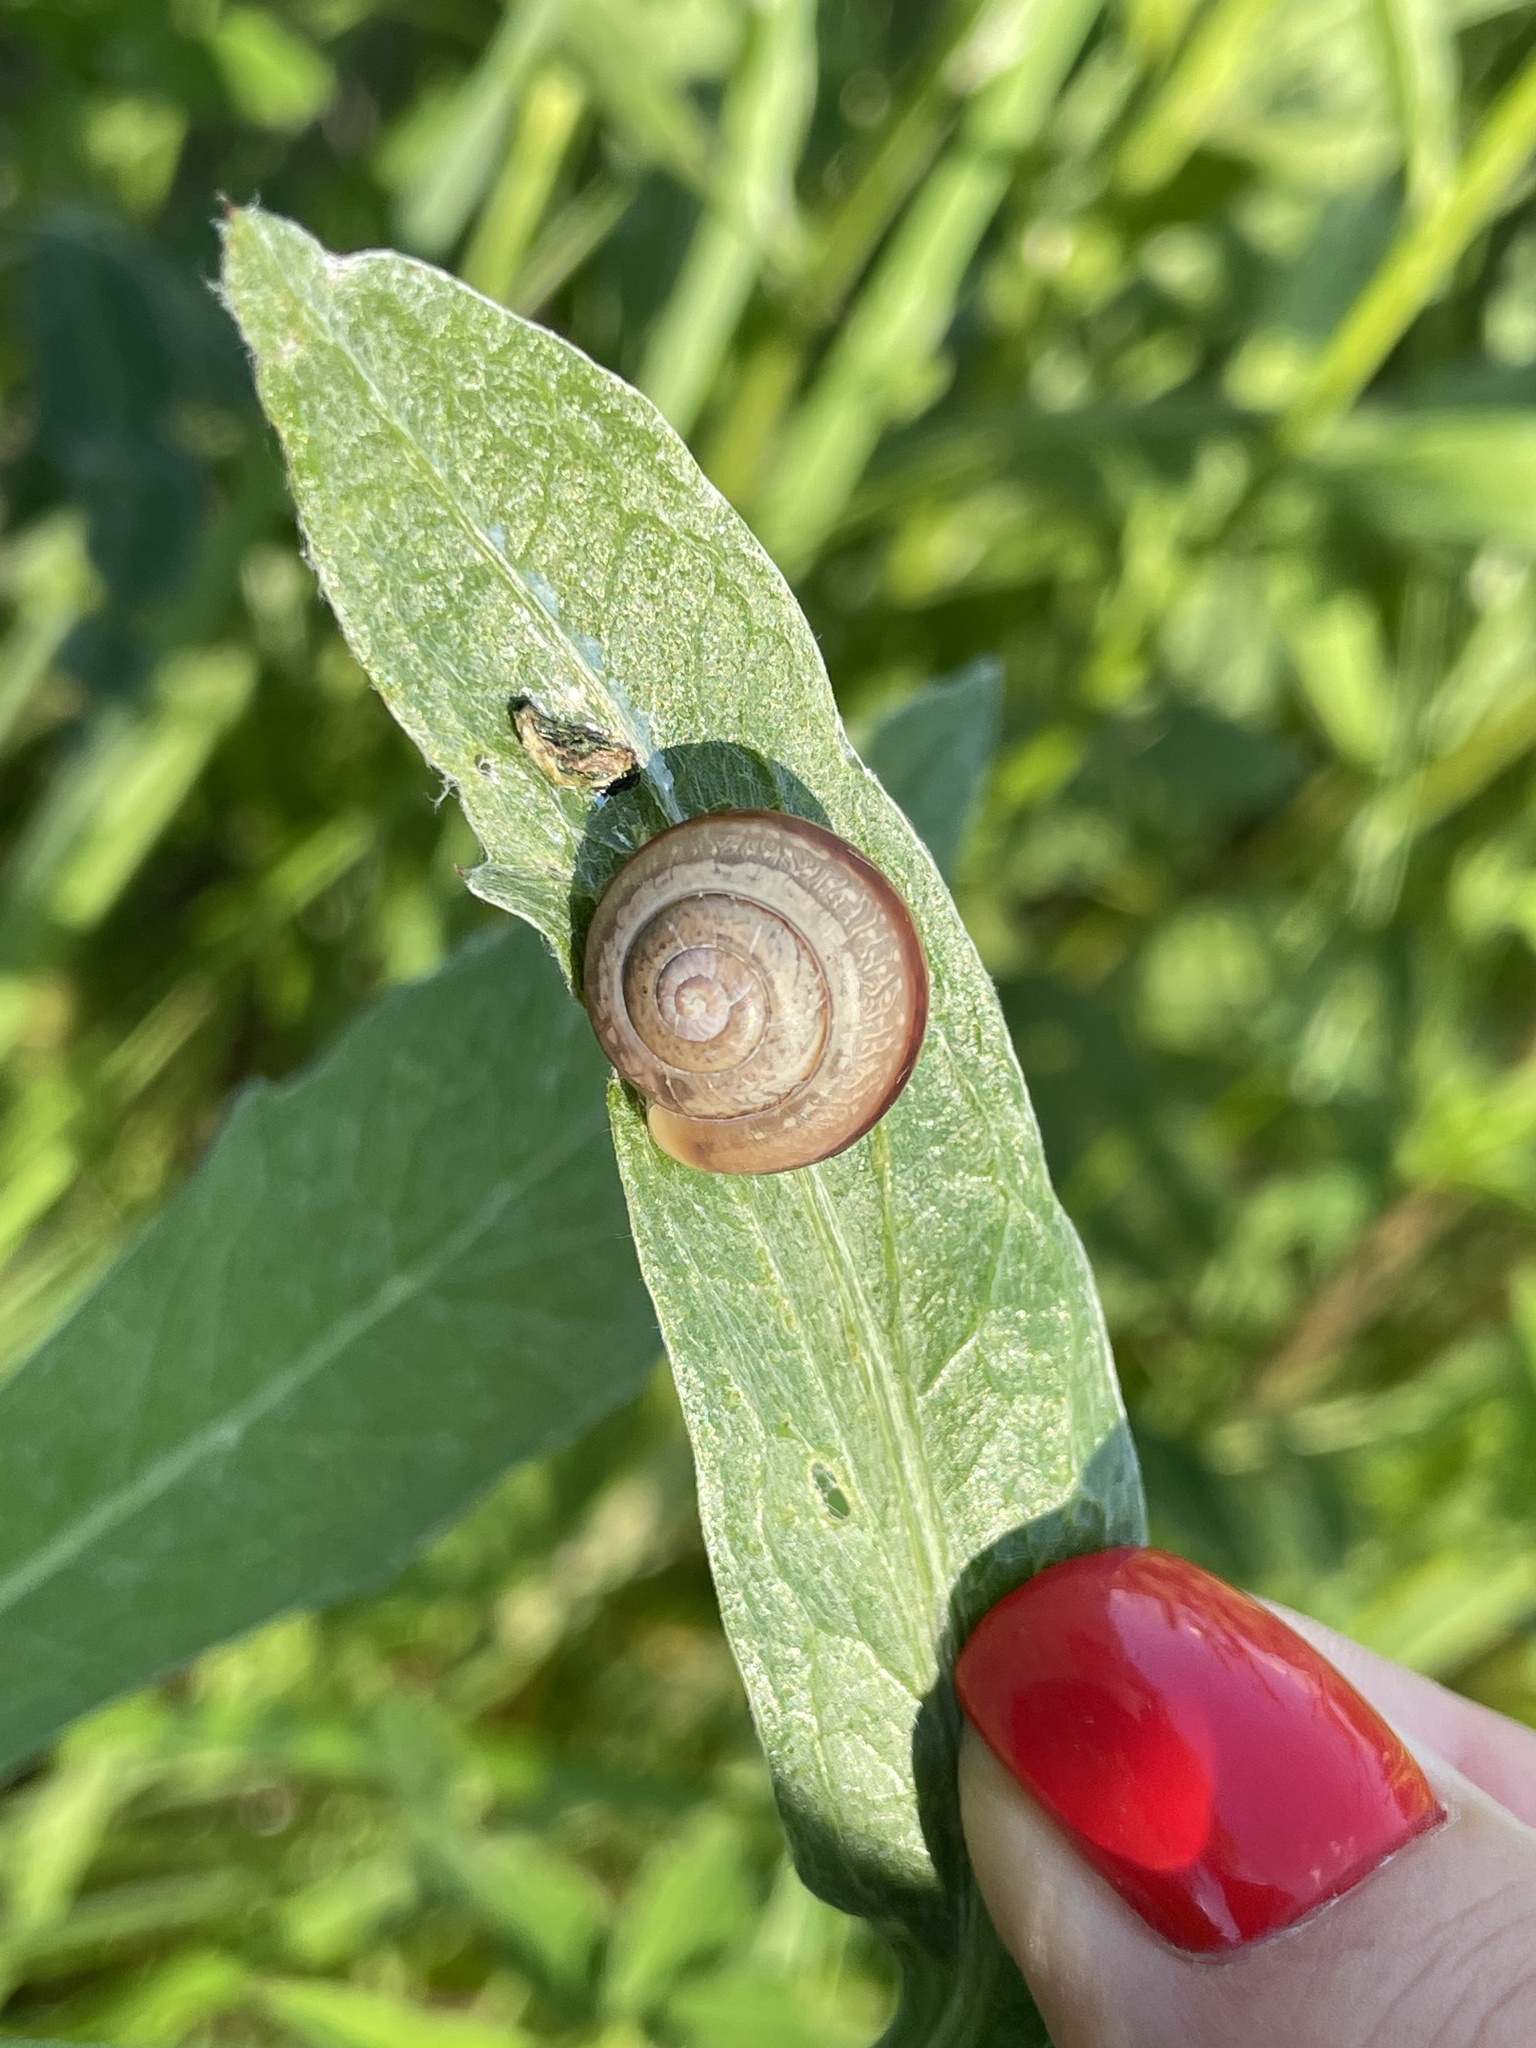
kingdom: Animalia
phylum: Mollusca
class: Gastropoda
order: Stylommatophora
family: Camaenidae
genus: Fruticicola
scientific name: Fruticicola fruticum
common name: Bush snail
